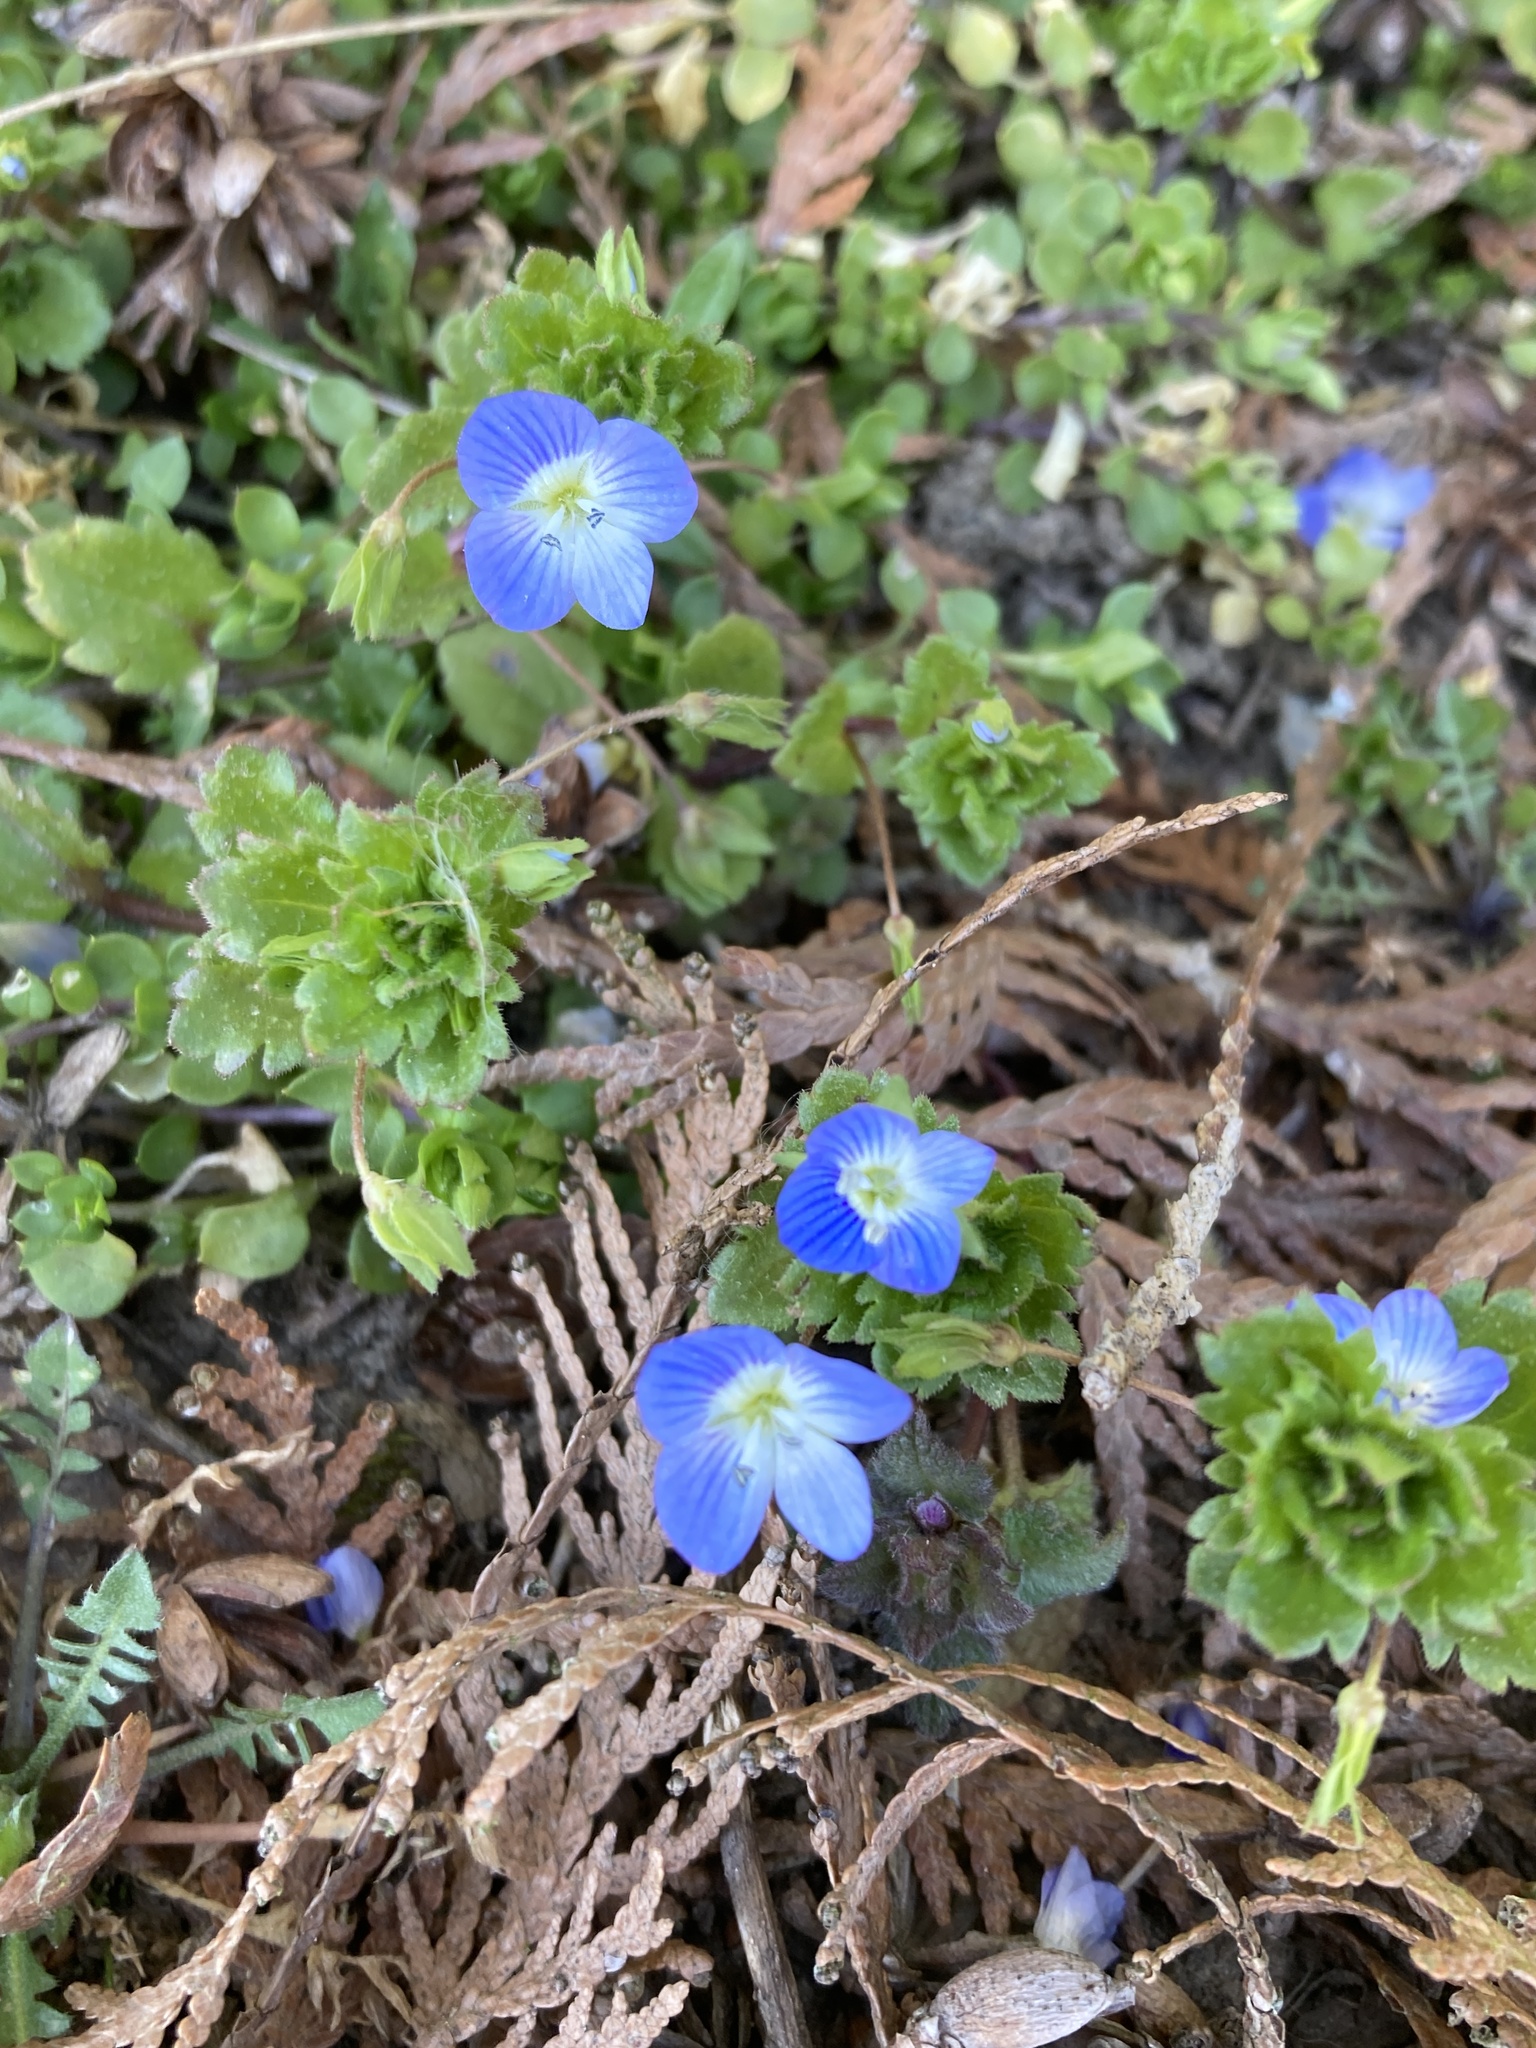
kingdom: Plantae
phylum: Tracheophyta
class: Magnoliopsida
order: Lamiales
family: Plantaginaceae
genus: Veronica
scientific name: Veronica persica
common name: Common field-speedwell
